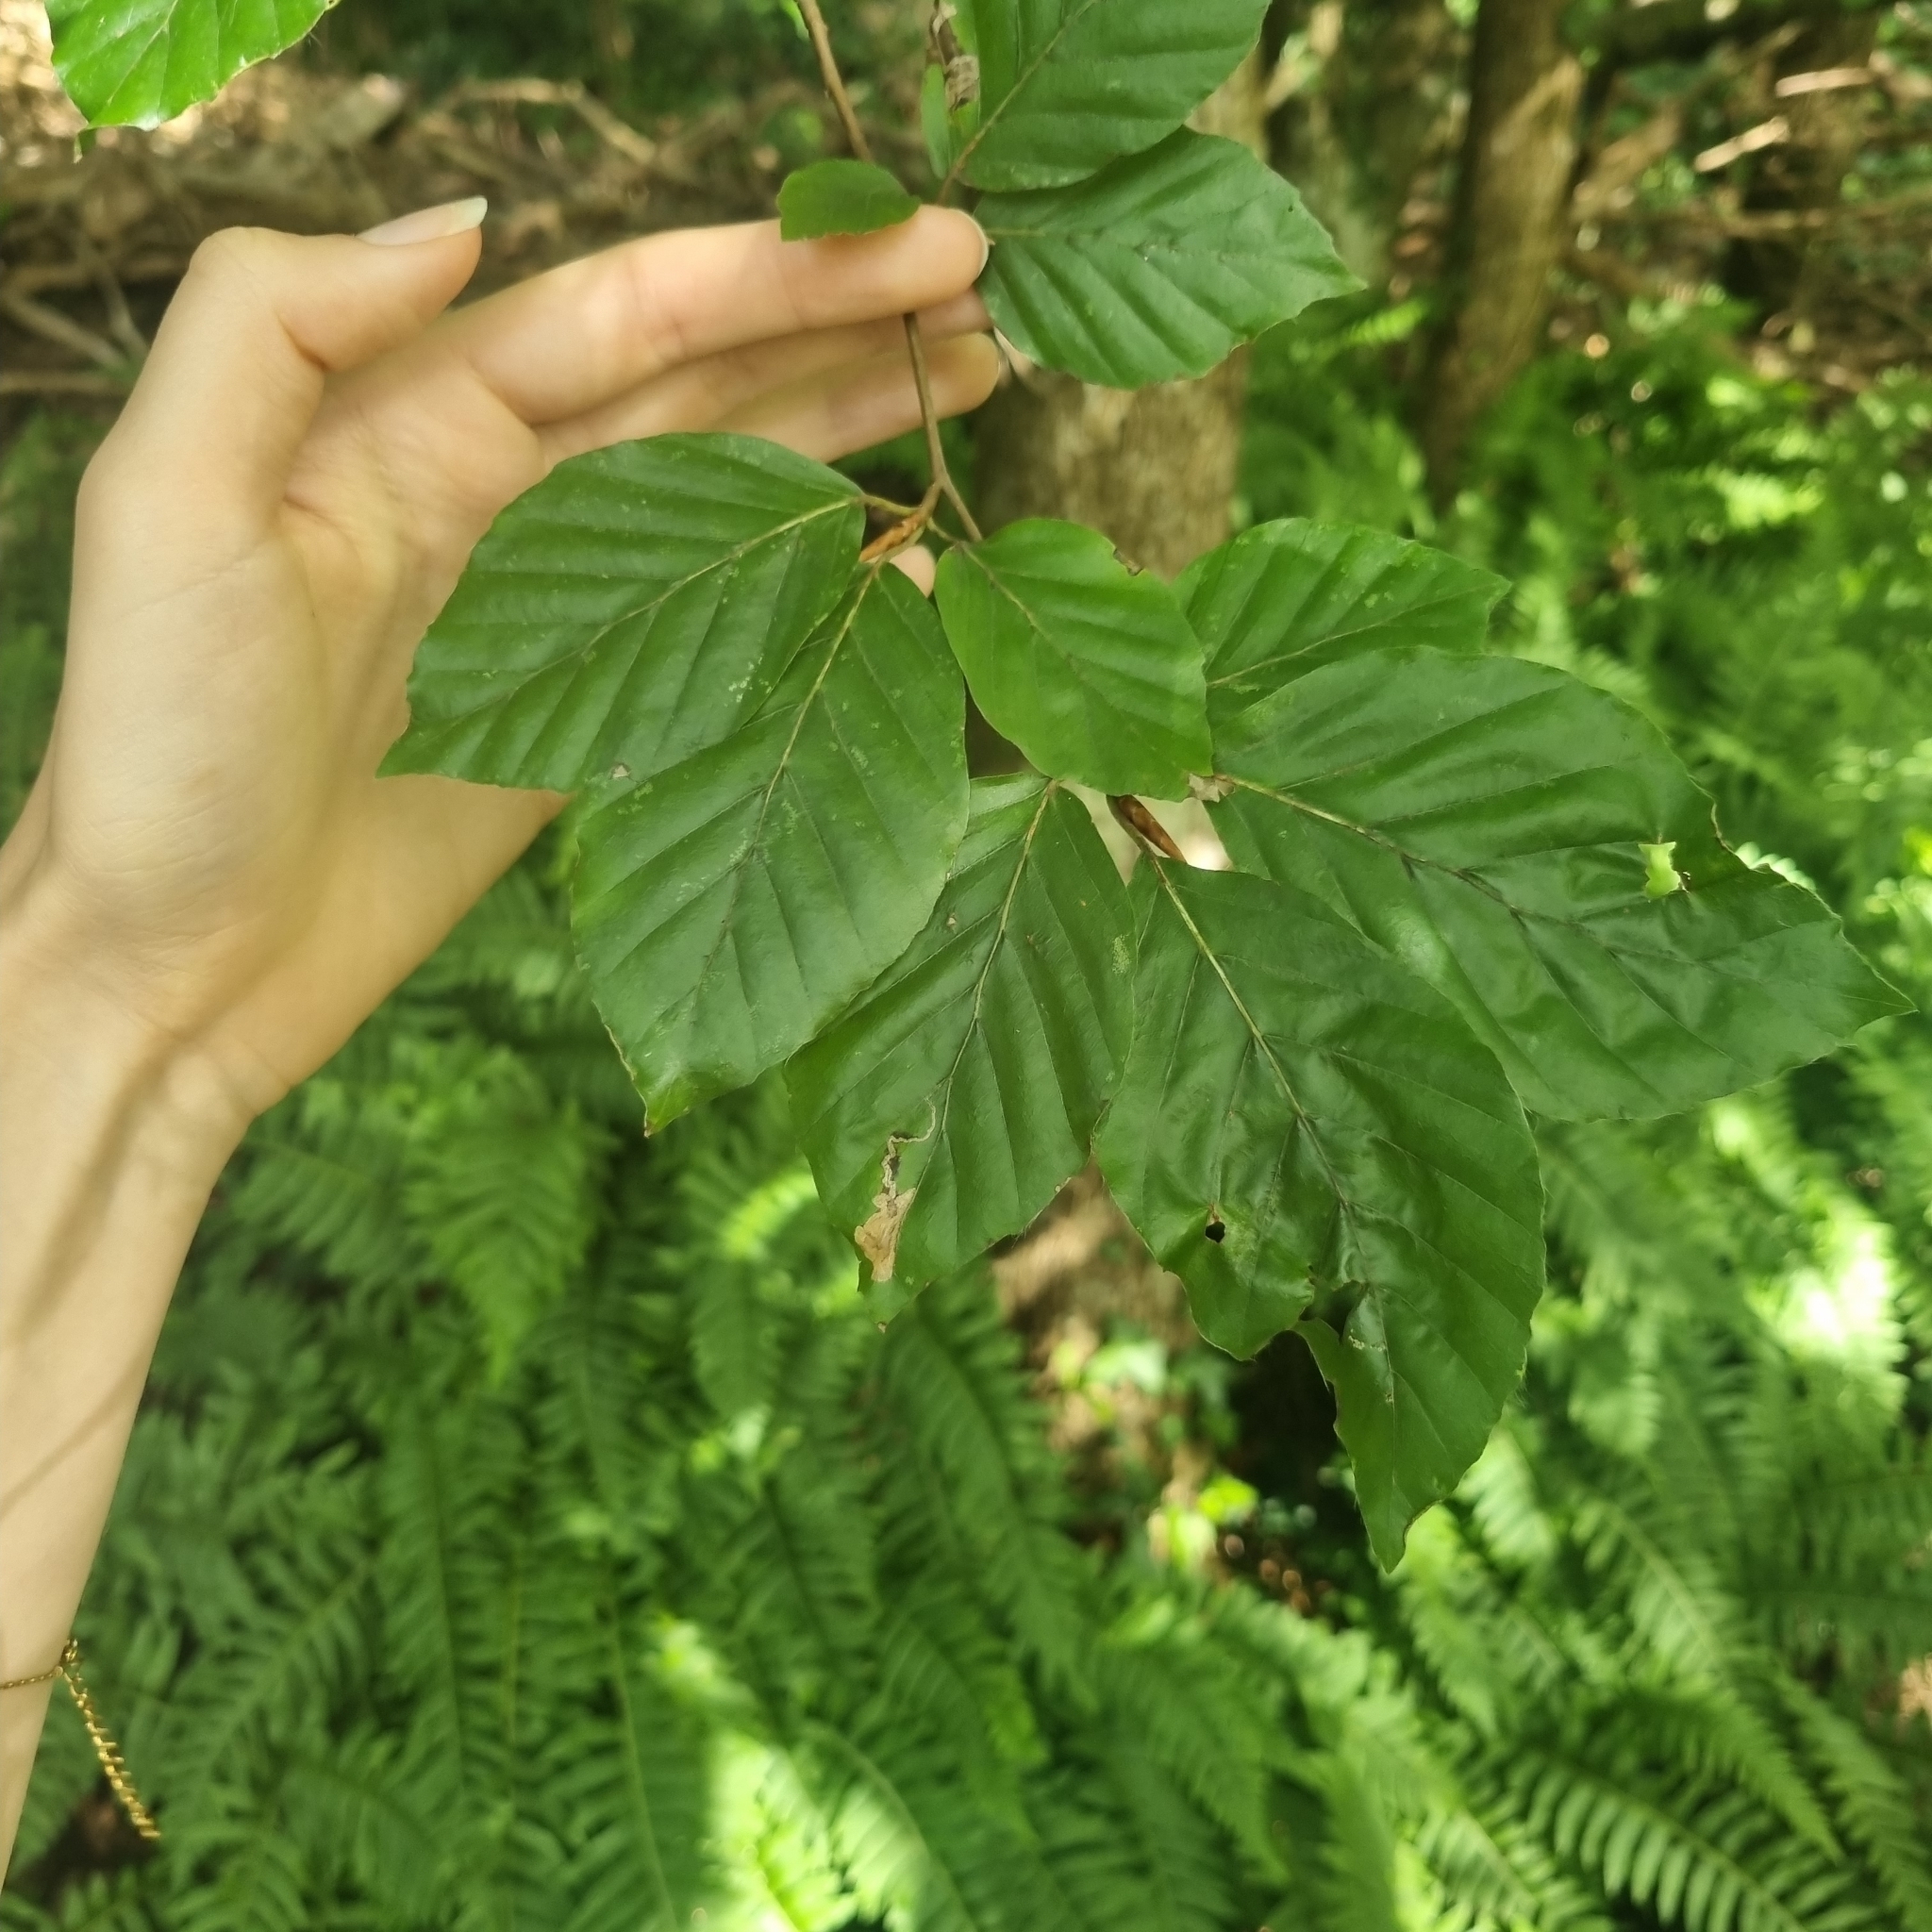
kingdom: Plantae
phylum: Tracheophyta
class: Magnoliopsida
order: Fagales
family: Fagaceae
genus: Fagus
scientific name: Fagus sylvatica
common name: Beech
